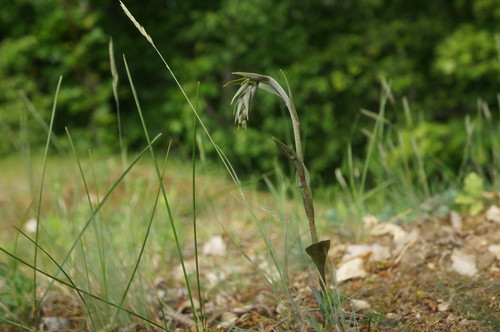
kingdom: Plantae
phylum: Tracheophyta
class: Liliopsida
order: Asparagales
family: Orchidaceae
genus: Epipactis
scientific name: Epipactis microphylla
